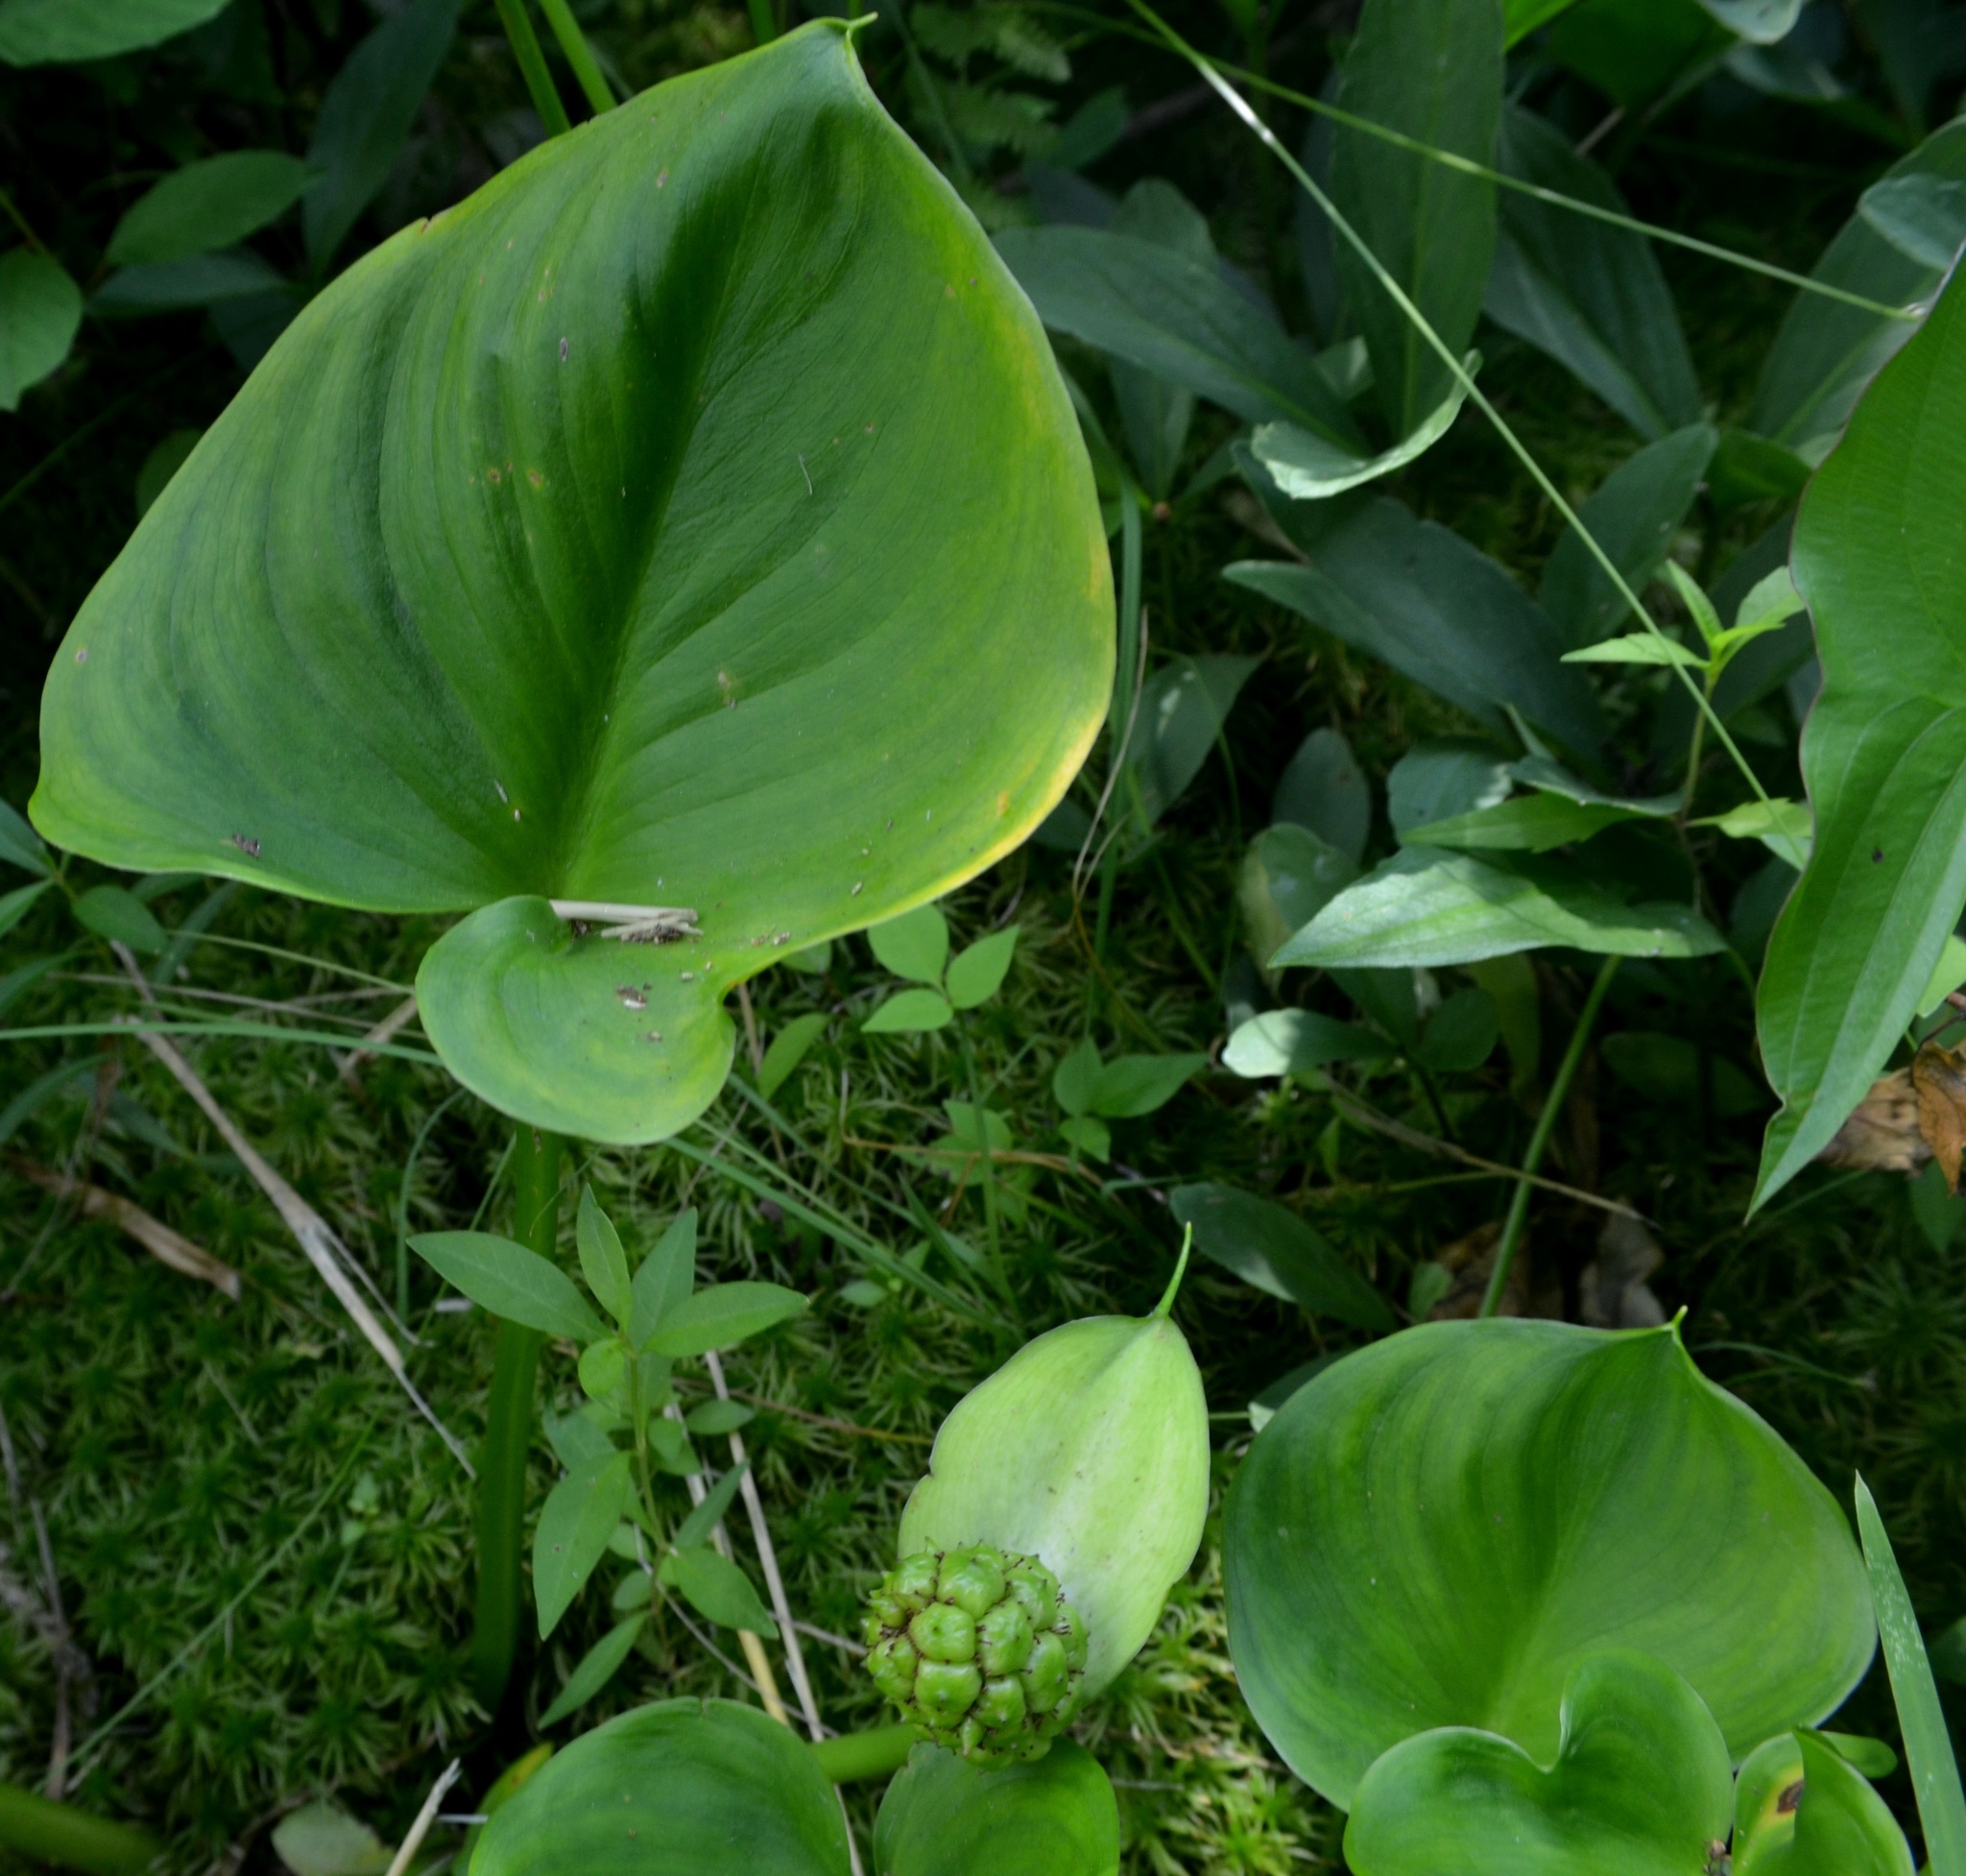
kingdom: Plantae
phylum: Tracheophyta
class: Liliopsida
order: Alismatales
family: Araceae
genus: Calla
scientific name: Calla palustris
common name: Bog arum
